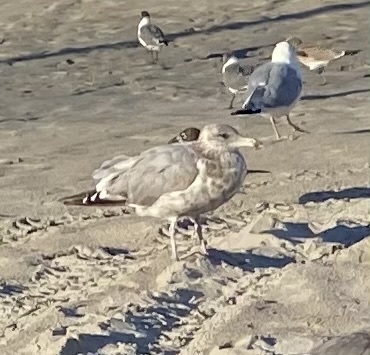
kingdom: Animalia
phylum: Chordata
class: Aves
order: Charadriiformes
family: Laridae
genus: Larus
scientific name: Larus argentatus
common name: Herring gull
